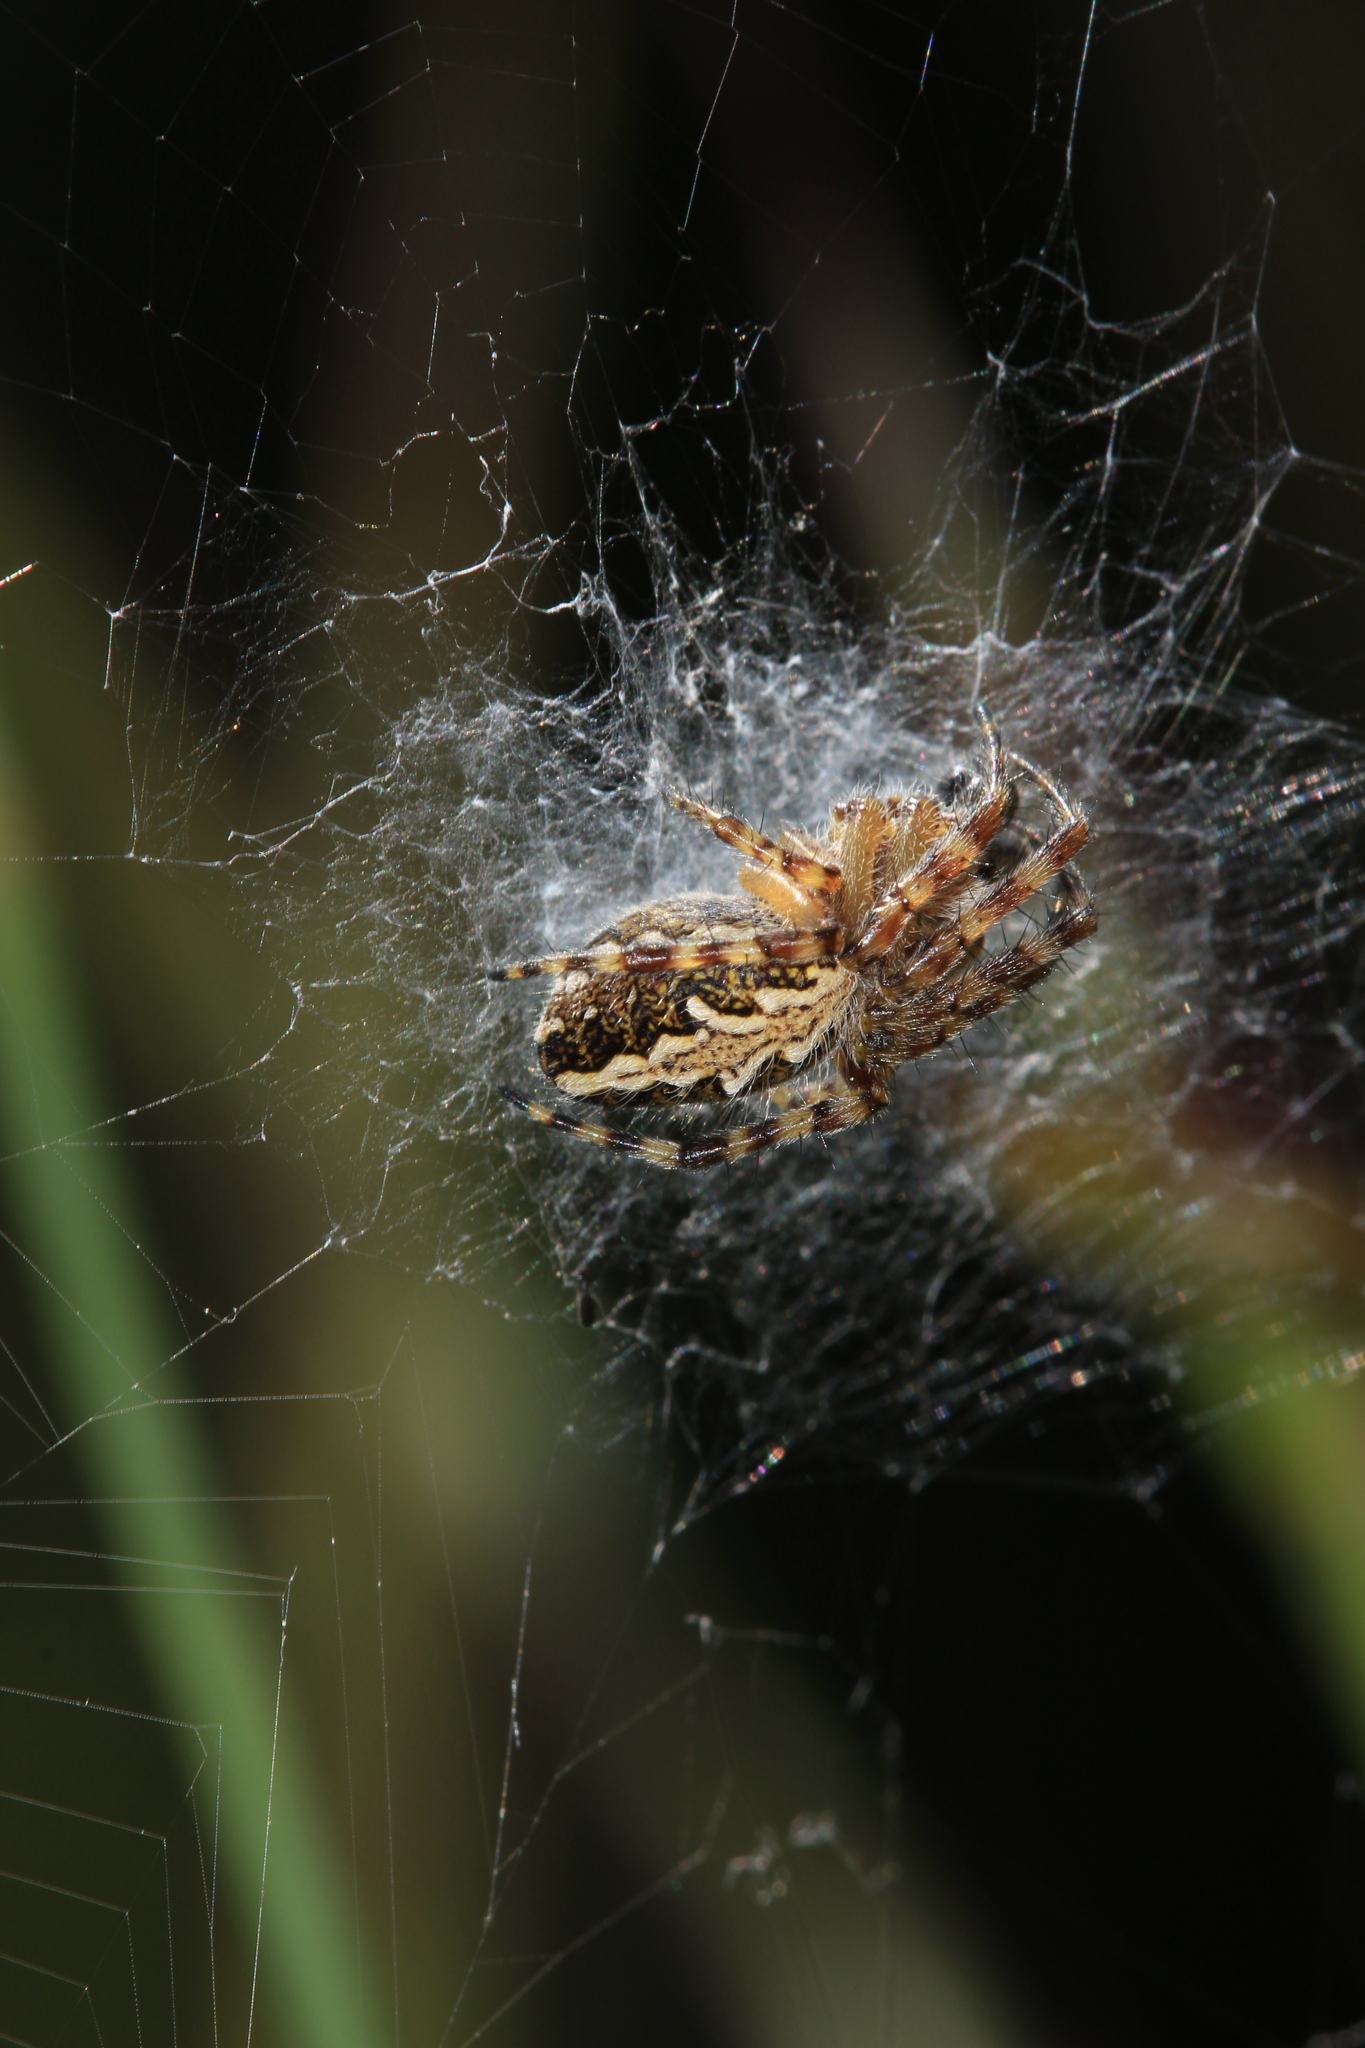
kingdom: Animalia
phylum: Arthropoda
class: Arachnida
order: Araneae
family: Araneidae
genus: Aculepeira
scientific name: Aculepeira ceropegia
